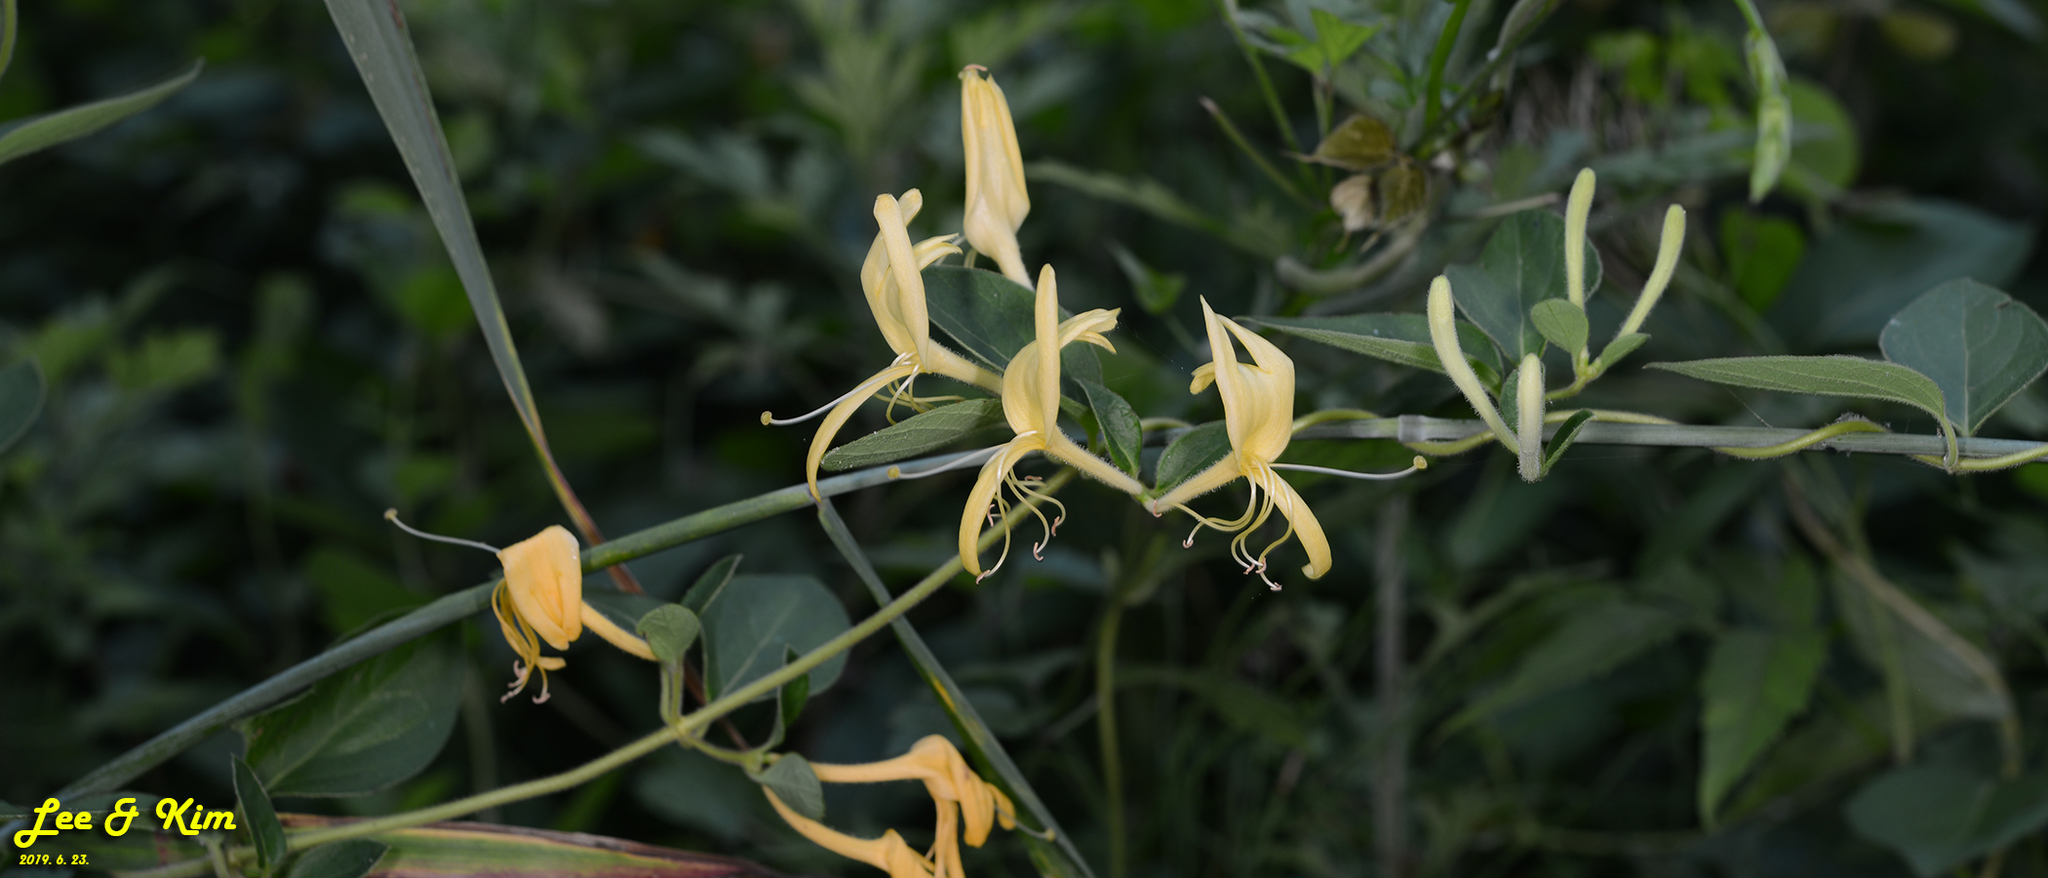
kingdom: Plantae
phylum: Tracheophyta
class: Magnoliopsida
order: Dipsacales
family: Caprifoliaceae
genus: Lonicera
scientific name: Lonicera japonica
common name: Japanese honeysuckle
